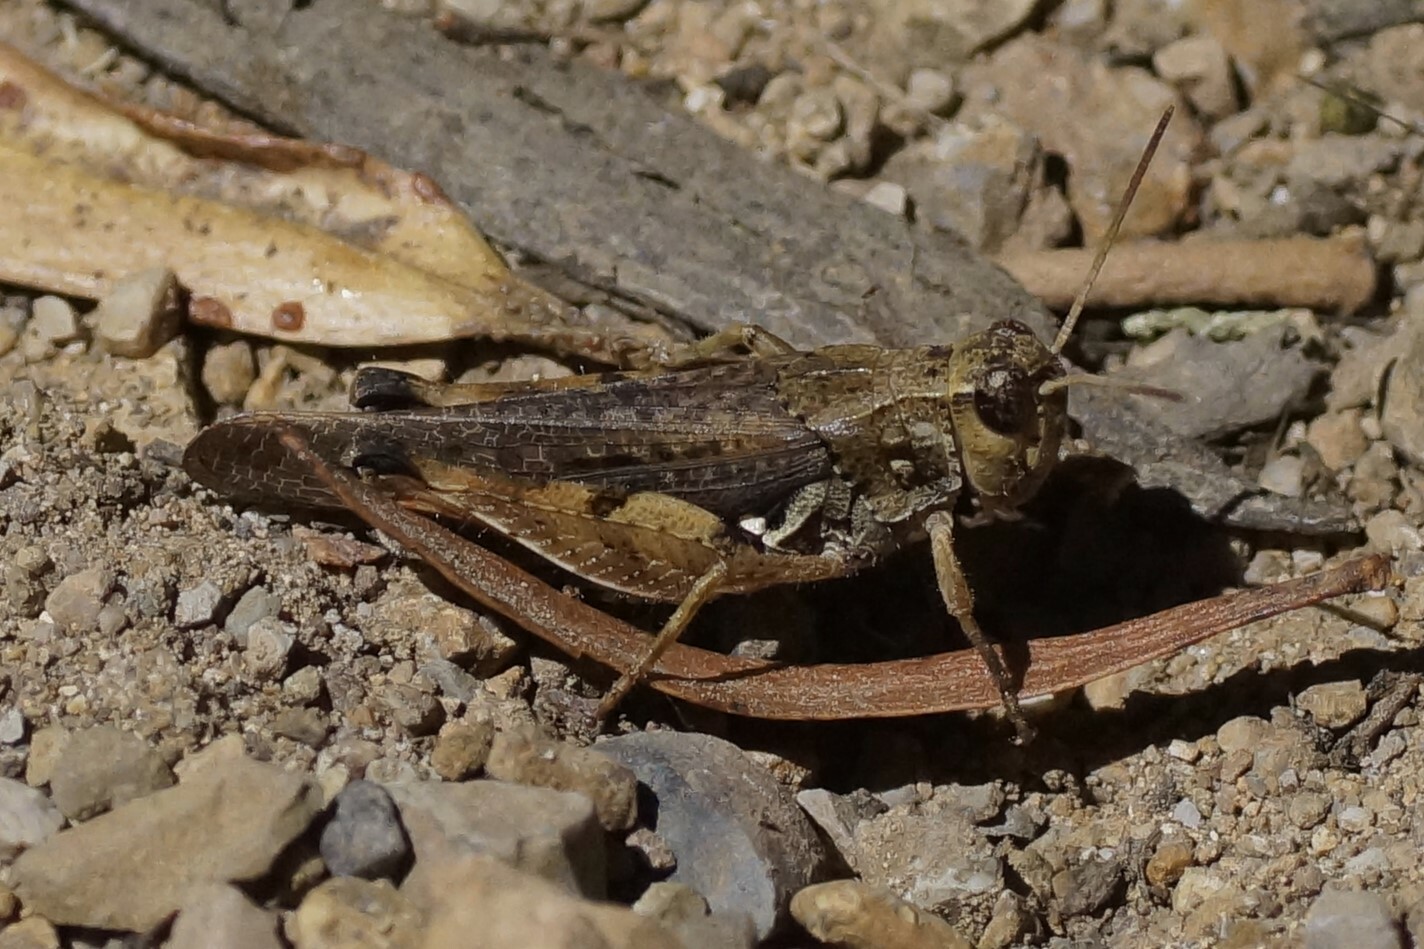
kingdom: Animalia
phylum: Arthropoda
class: Insecta
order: Orthoptera
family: Acrididae
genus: Phaulacridium
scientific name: Phaulacridium vittatum
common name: Wingless grasshopper
